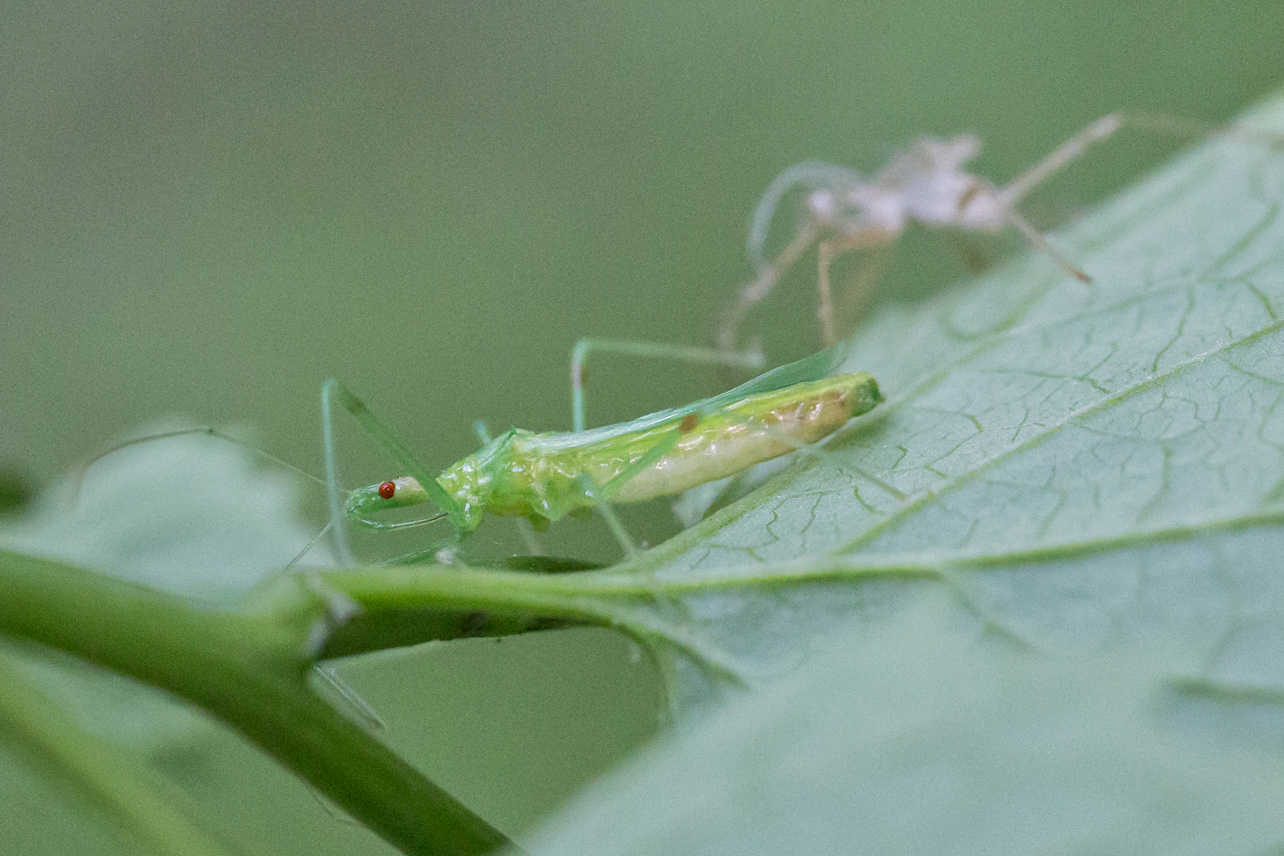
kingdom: Animalia
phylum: Arthropoda
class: Insecta
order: Hemiptera
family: Reduviidae
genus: Zelus
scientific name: Zelus luridus
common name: Pale green assassin bug
